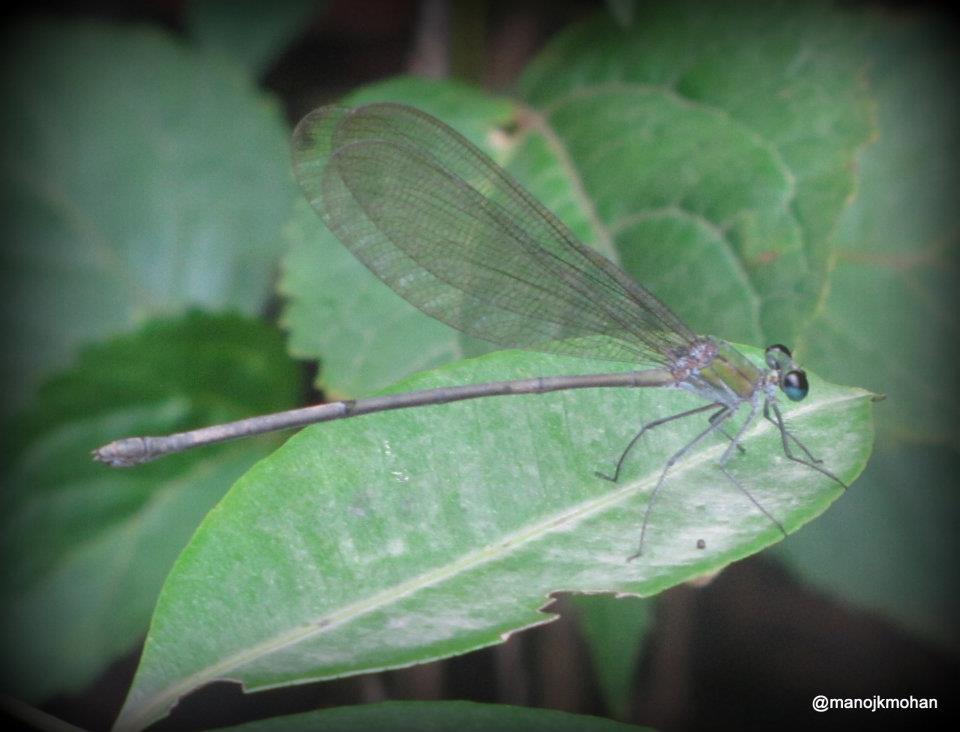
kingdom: Animalia
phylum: Arthropoda
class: Insecta
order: Odonata
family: Calopterygidae
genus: Vestalis
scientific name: Vestalis gracilis
